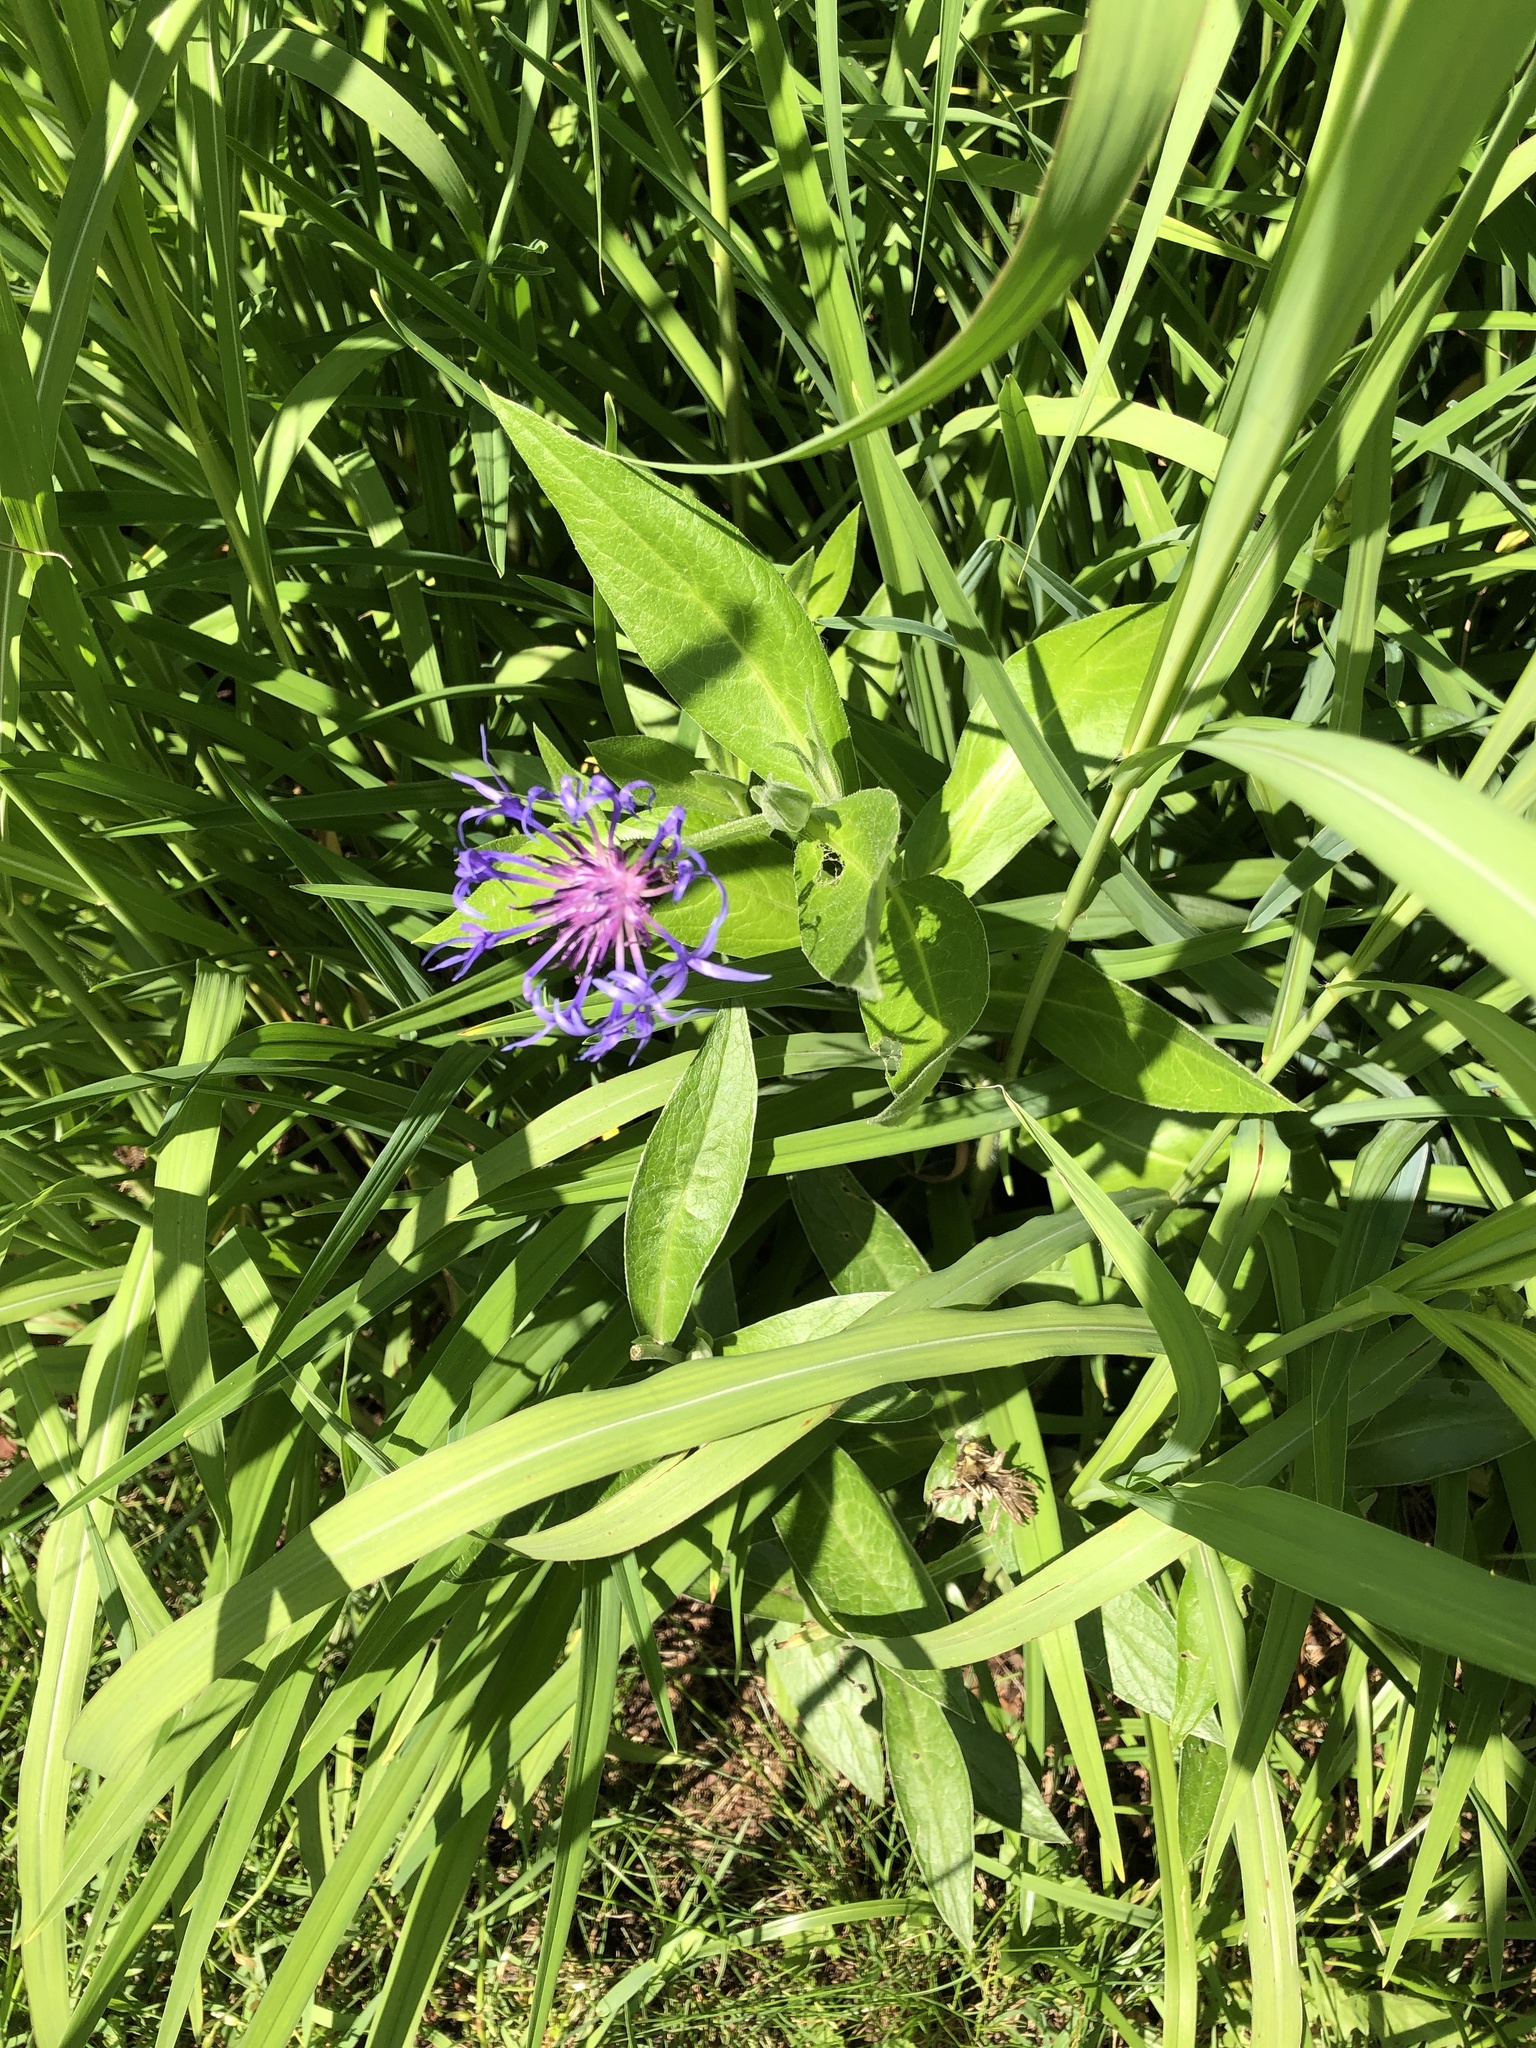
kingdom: Plantae
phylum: Tracheophyta
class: Magnoliopsida
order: Asterales
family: Asteraceae
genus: Centaurea
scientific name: Centaurea montana
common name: Perennial cornflower
